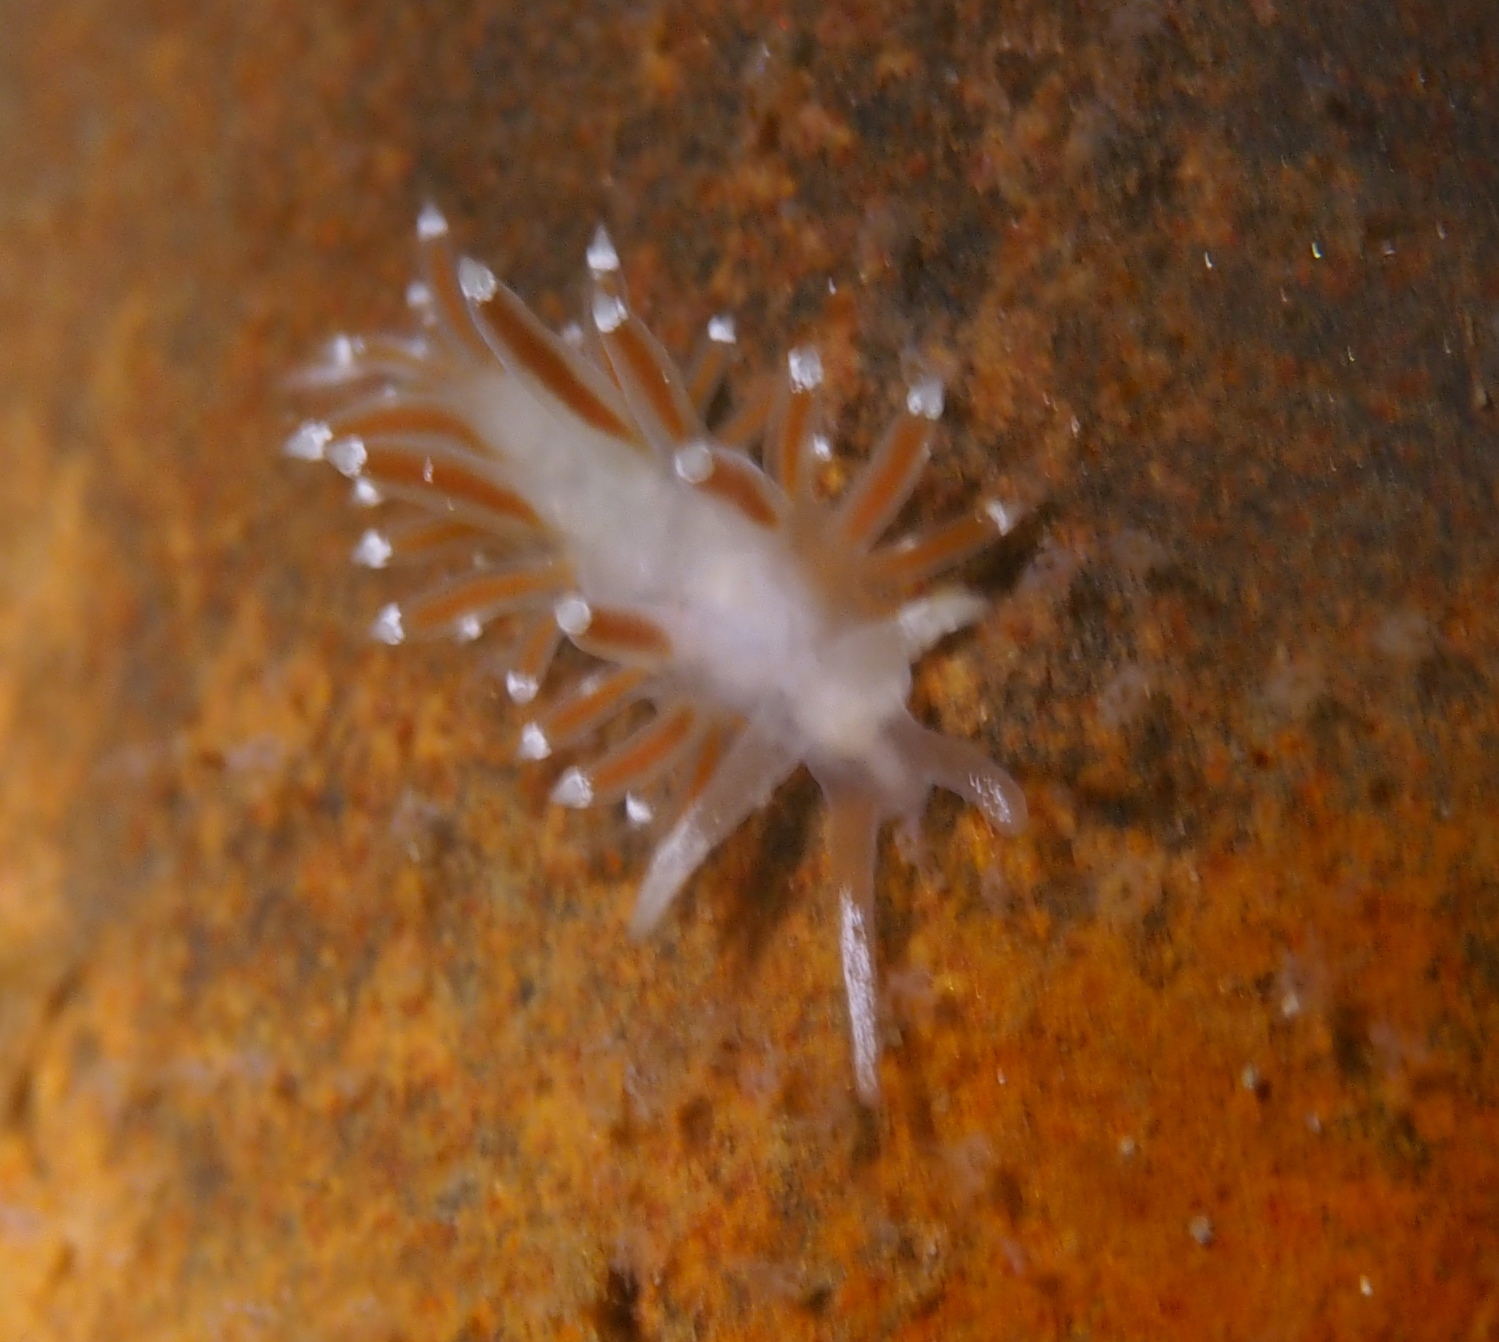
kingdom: Animalia
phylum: Mollusca
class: Gastropoda
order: Nudibranchia
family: Coryphellidae
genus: Coryphella
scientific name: Coryphella gracilis
